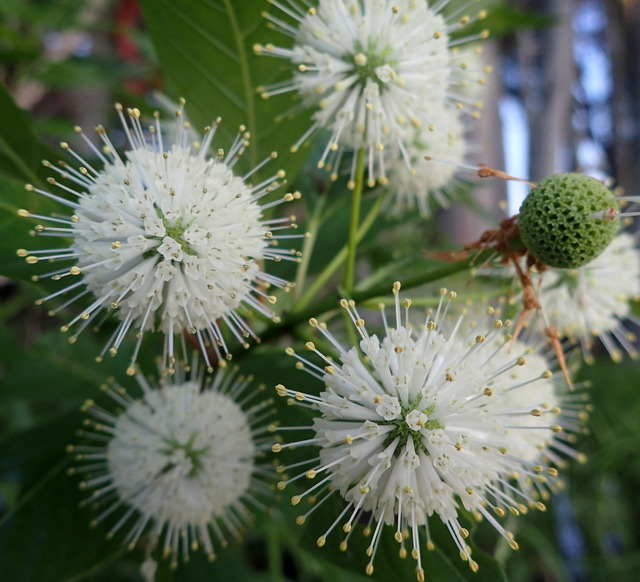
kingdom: Plantae
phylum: Tracheophyta
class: Magnoliopsida
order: Gentianales
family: Rubiaceae
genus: Cephalanthus
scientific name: Cephalanthus occidentalis
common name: Button-willow
